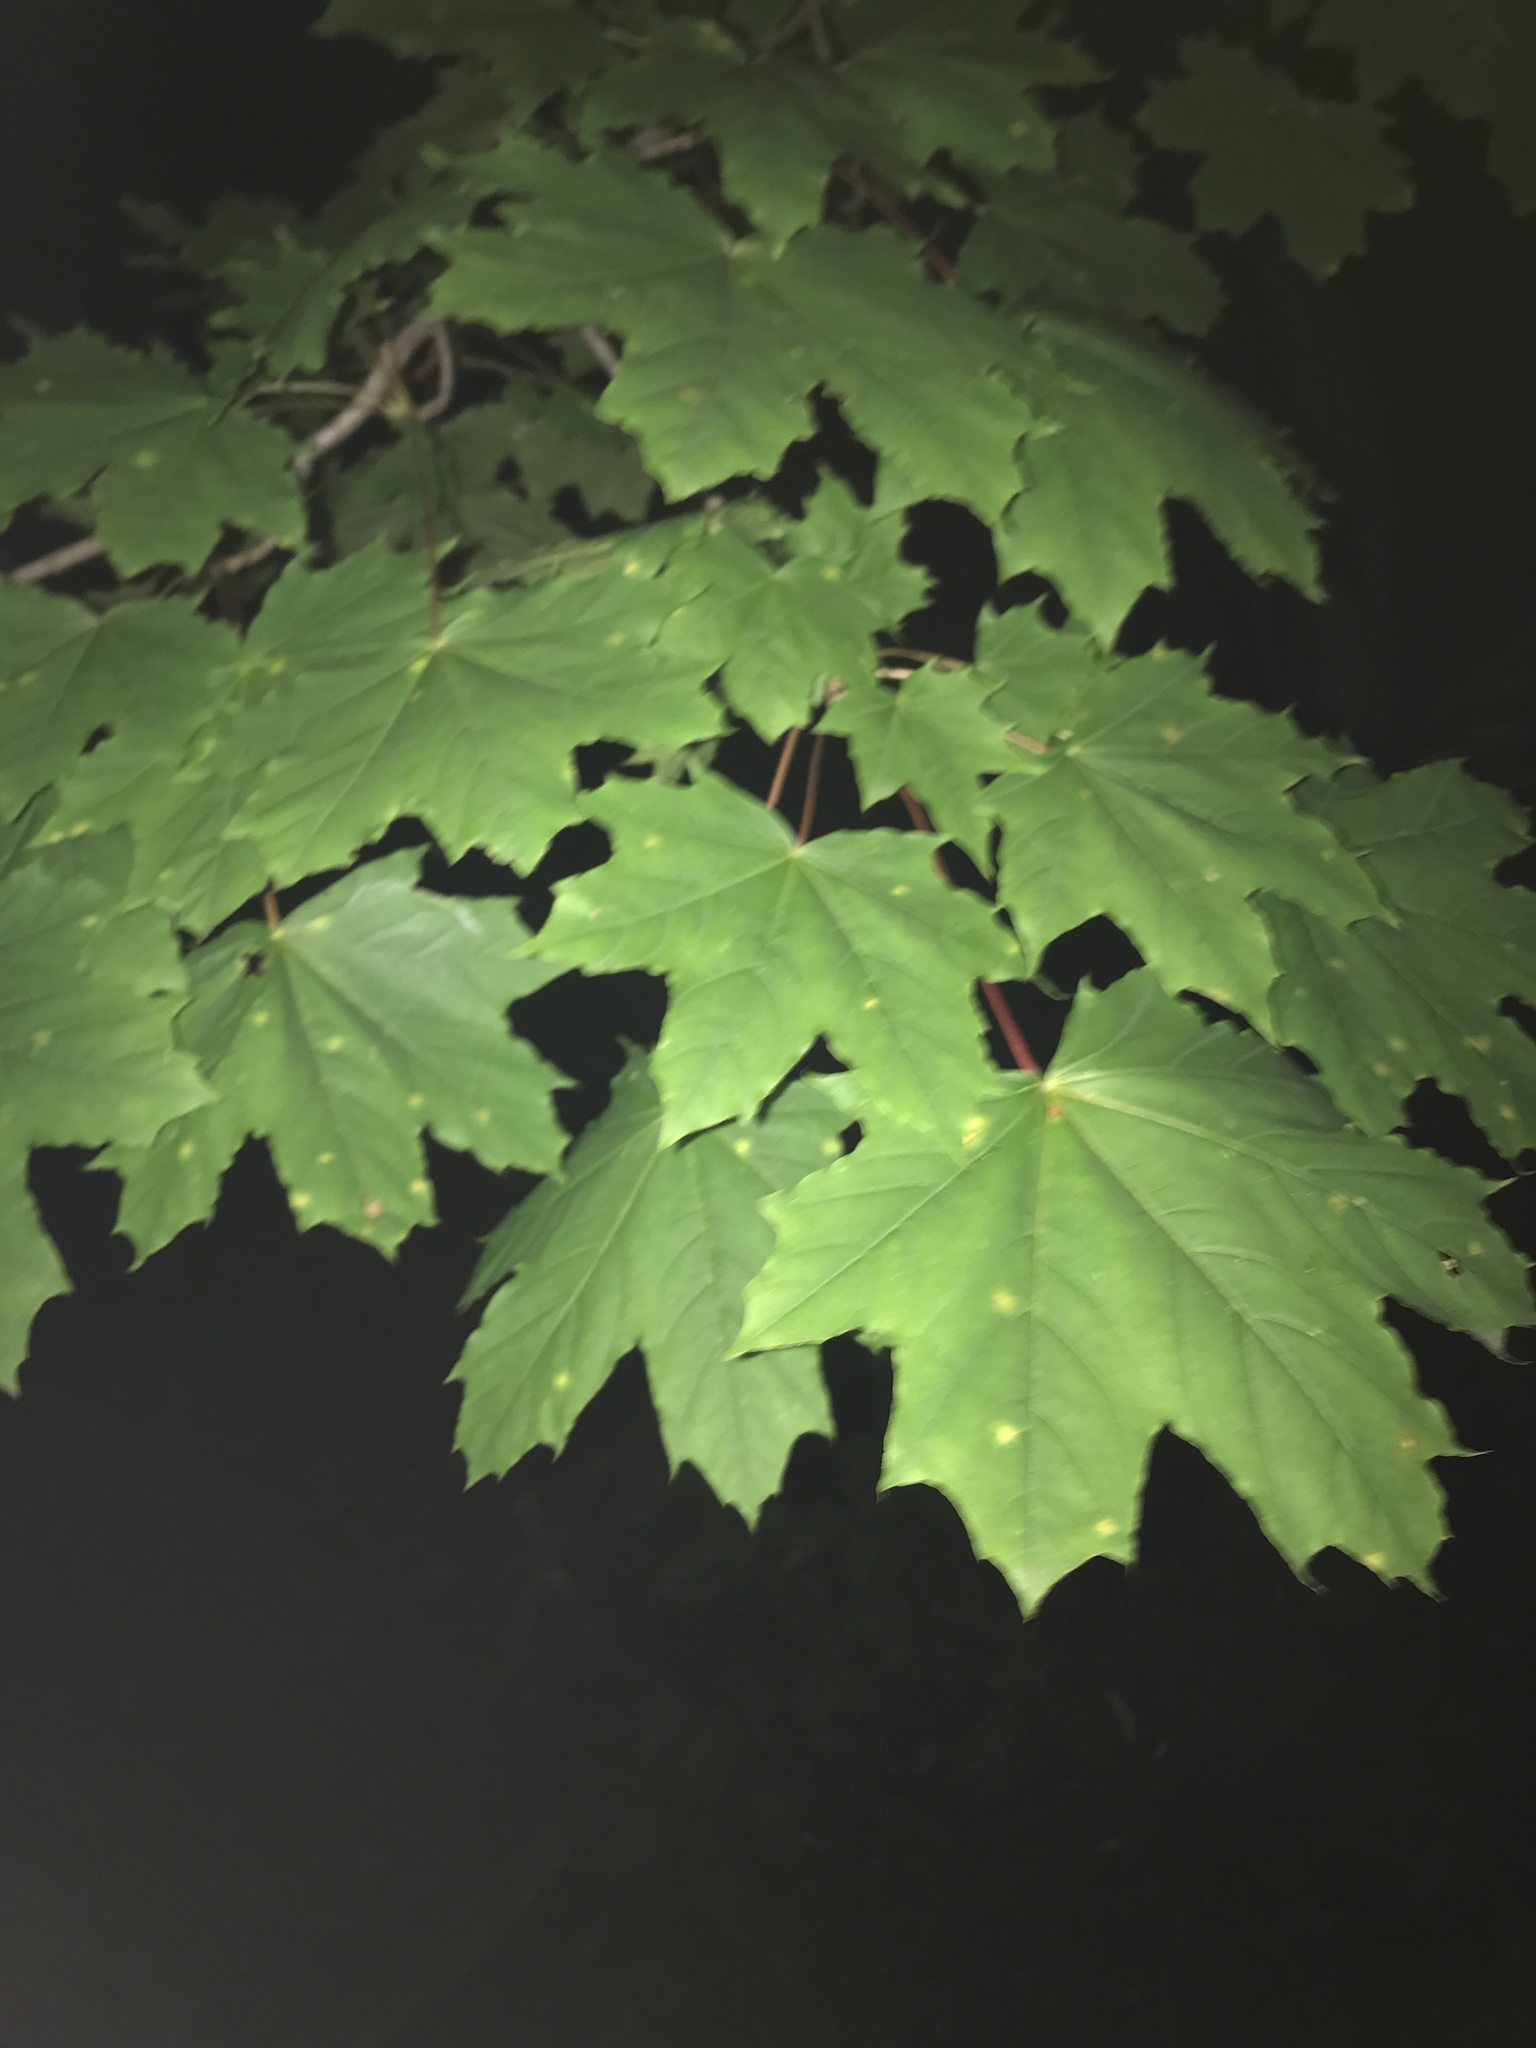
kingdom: Plantae
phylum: Tracheophyta
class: Magnoliopsida
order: Sapindales
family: Sapindaceae
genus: Acer
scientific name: Acer platanoides
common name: Norway maple
